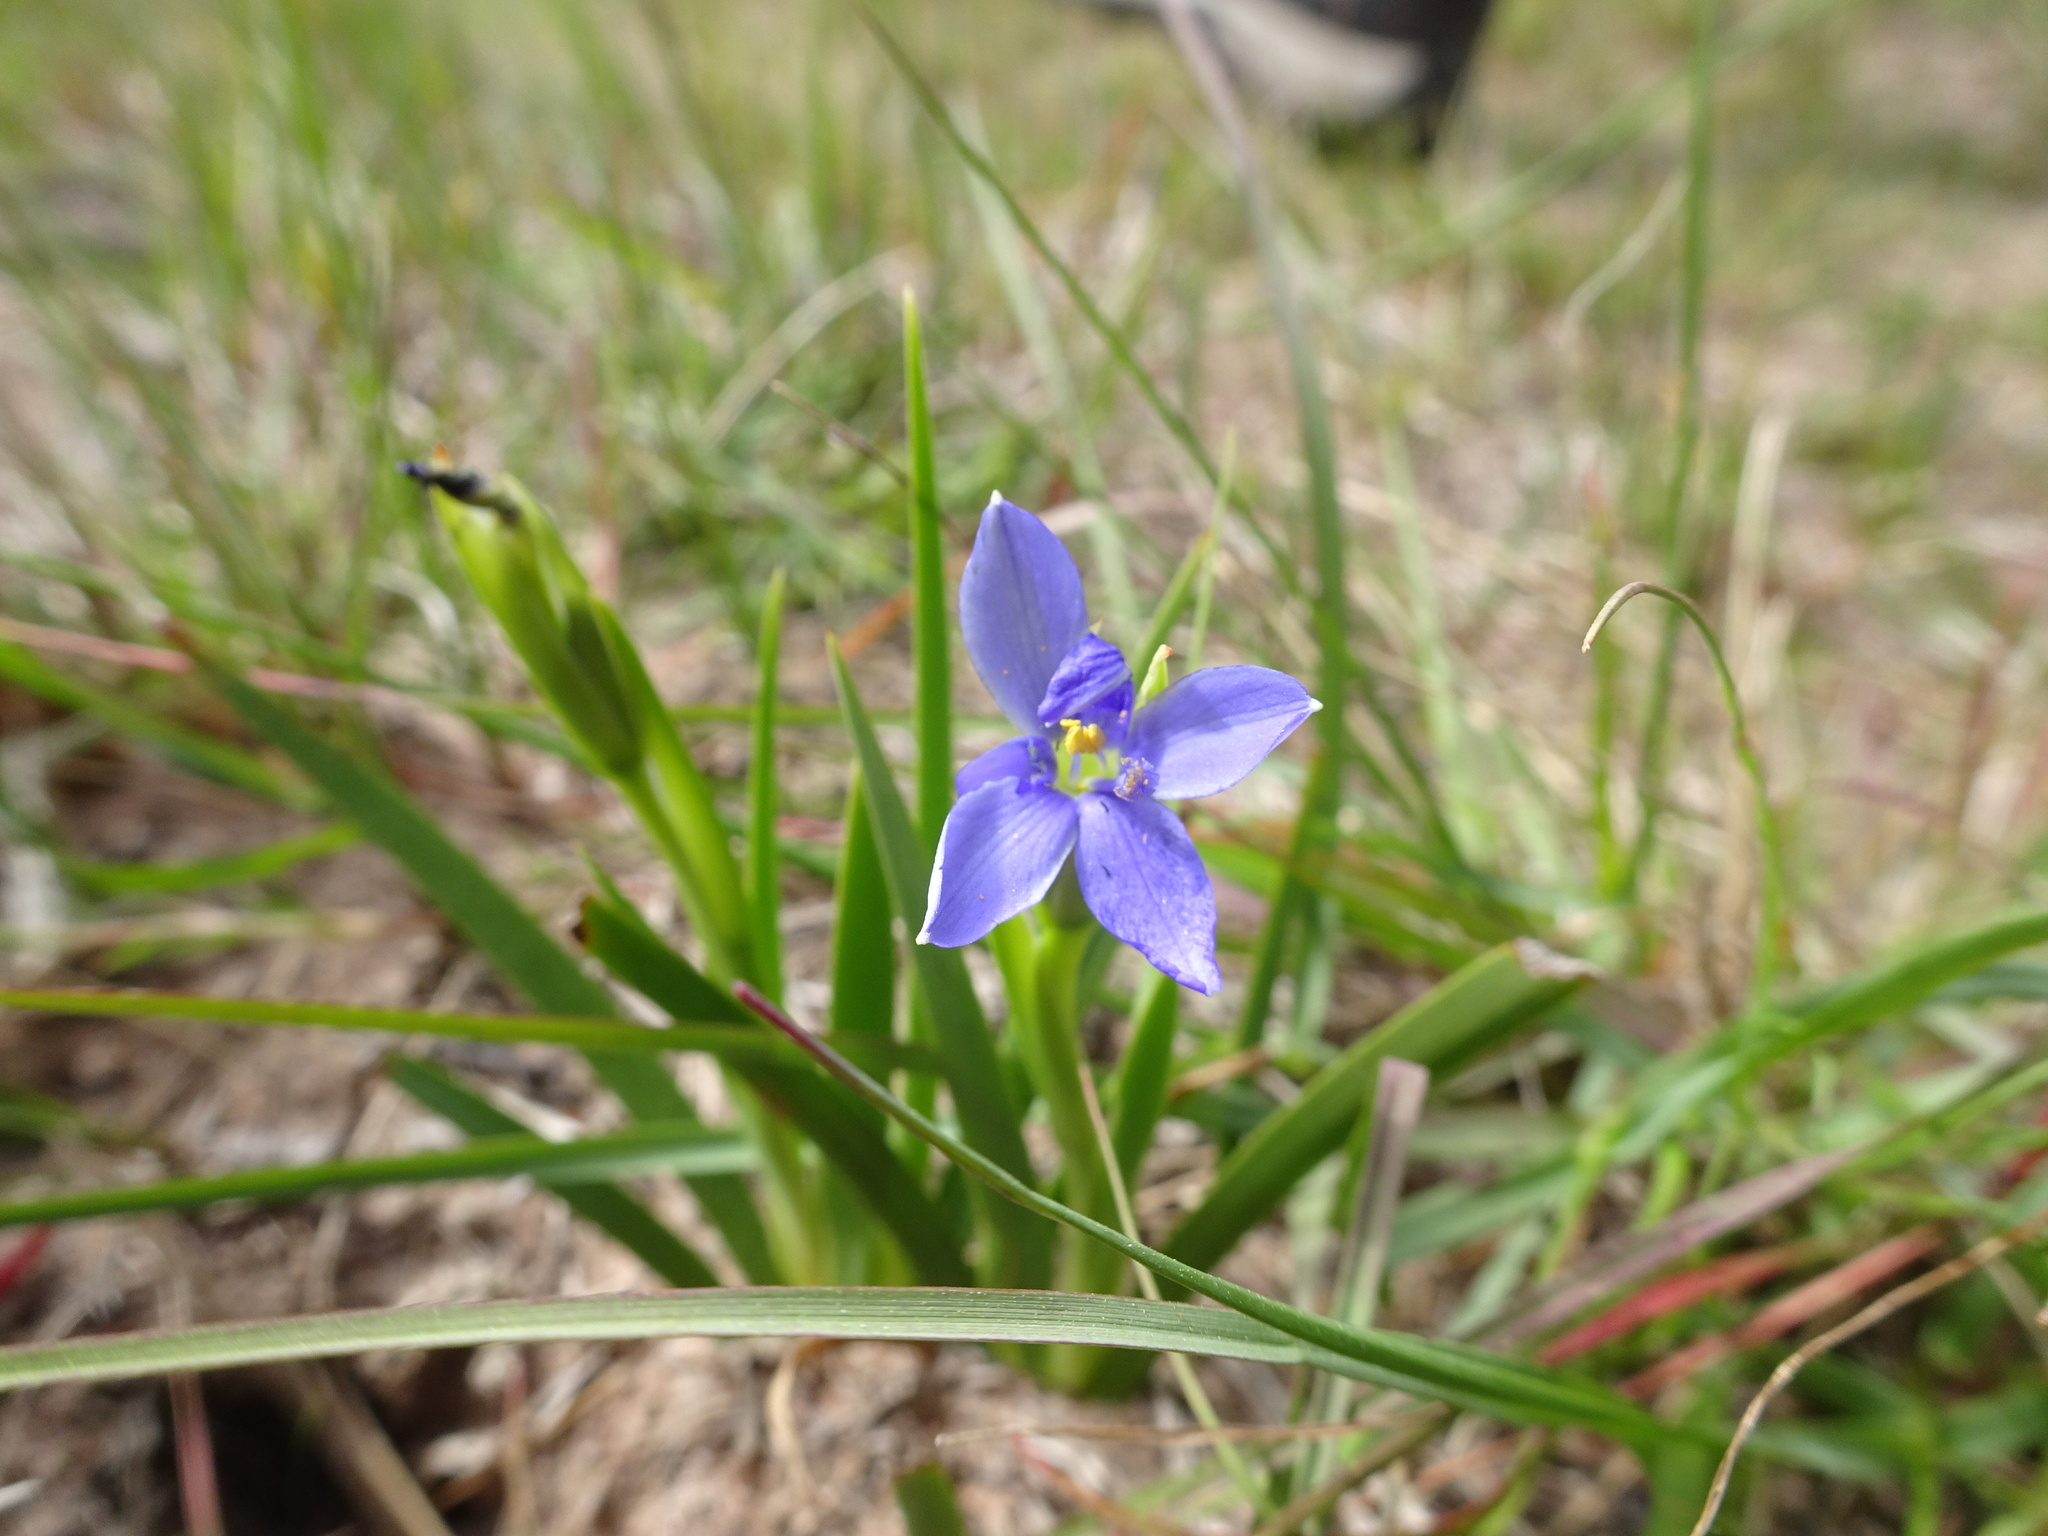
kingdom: Plantae
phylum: Tracheophyta
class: Liliopsida
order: Asparagales
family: Iridaceae
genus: Aristea
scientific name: Aristea pusilla
